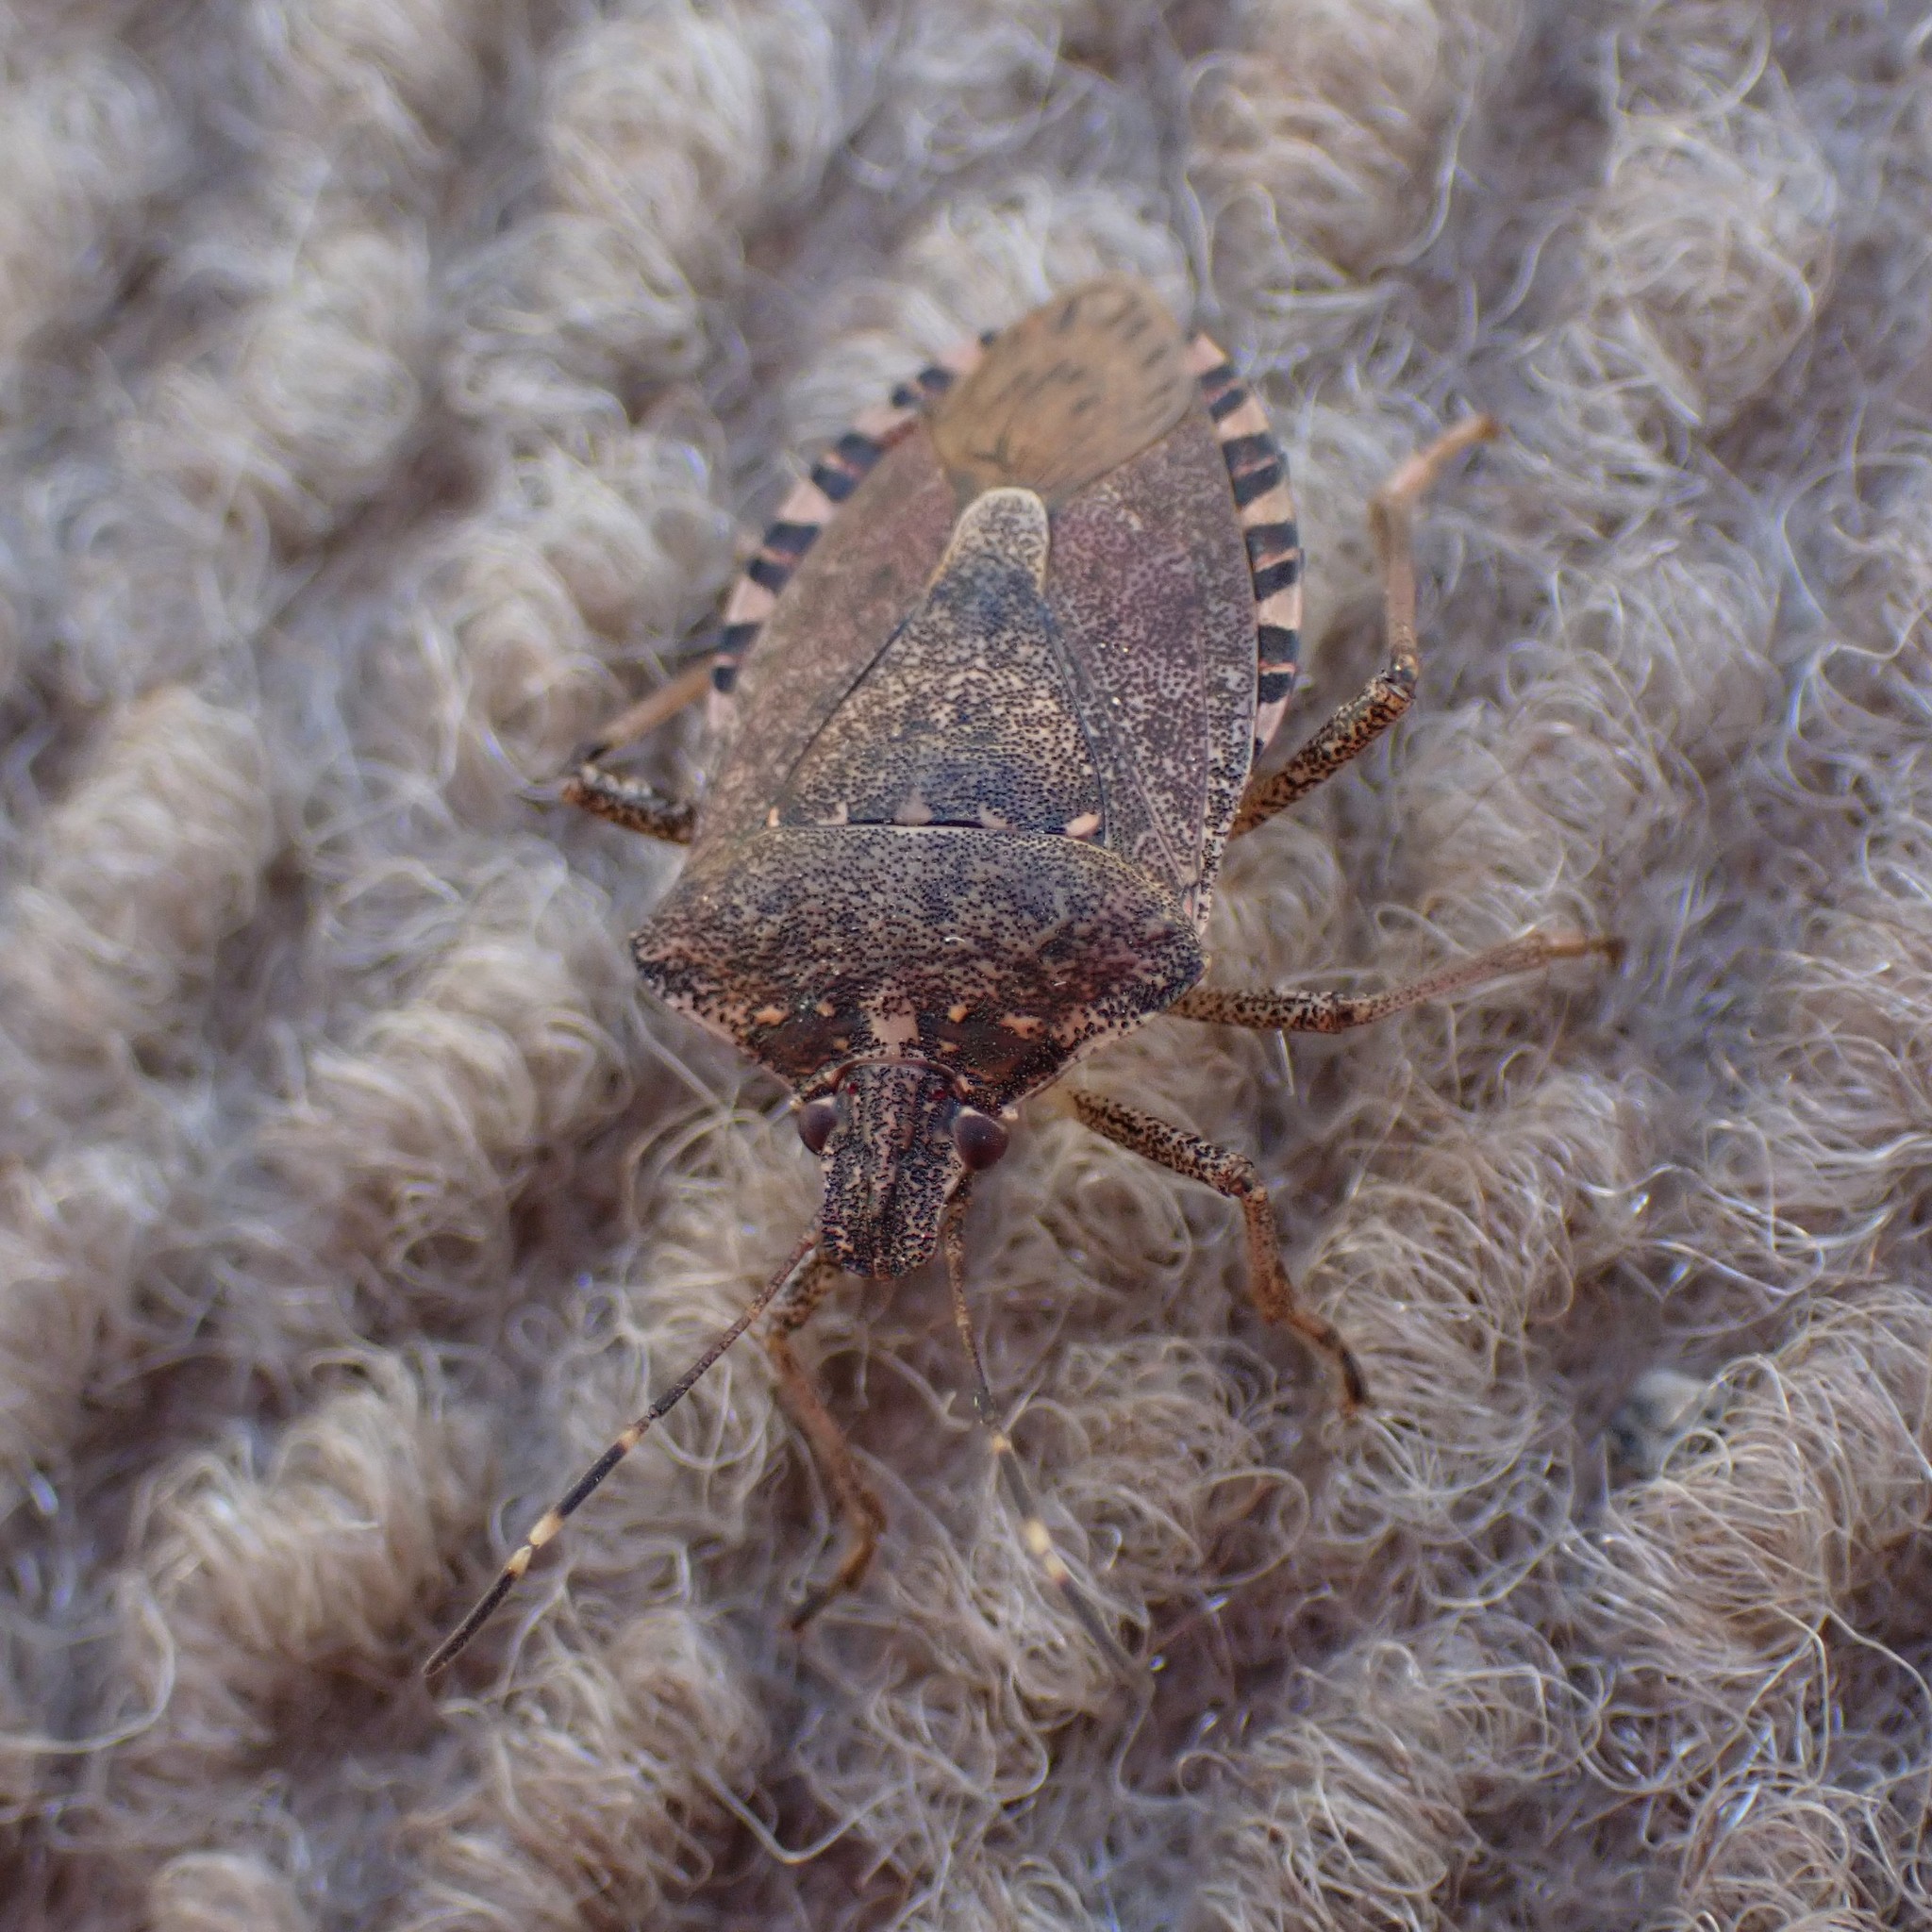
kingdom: Animalia
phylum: Arthropoda
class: Insecta
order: Hemiptera
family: Pentatomidae
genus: Halyomorpha
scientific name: Halyomorpha halys
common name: Brown marmorated stink bug
